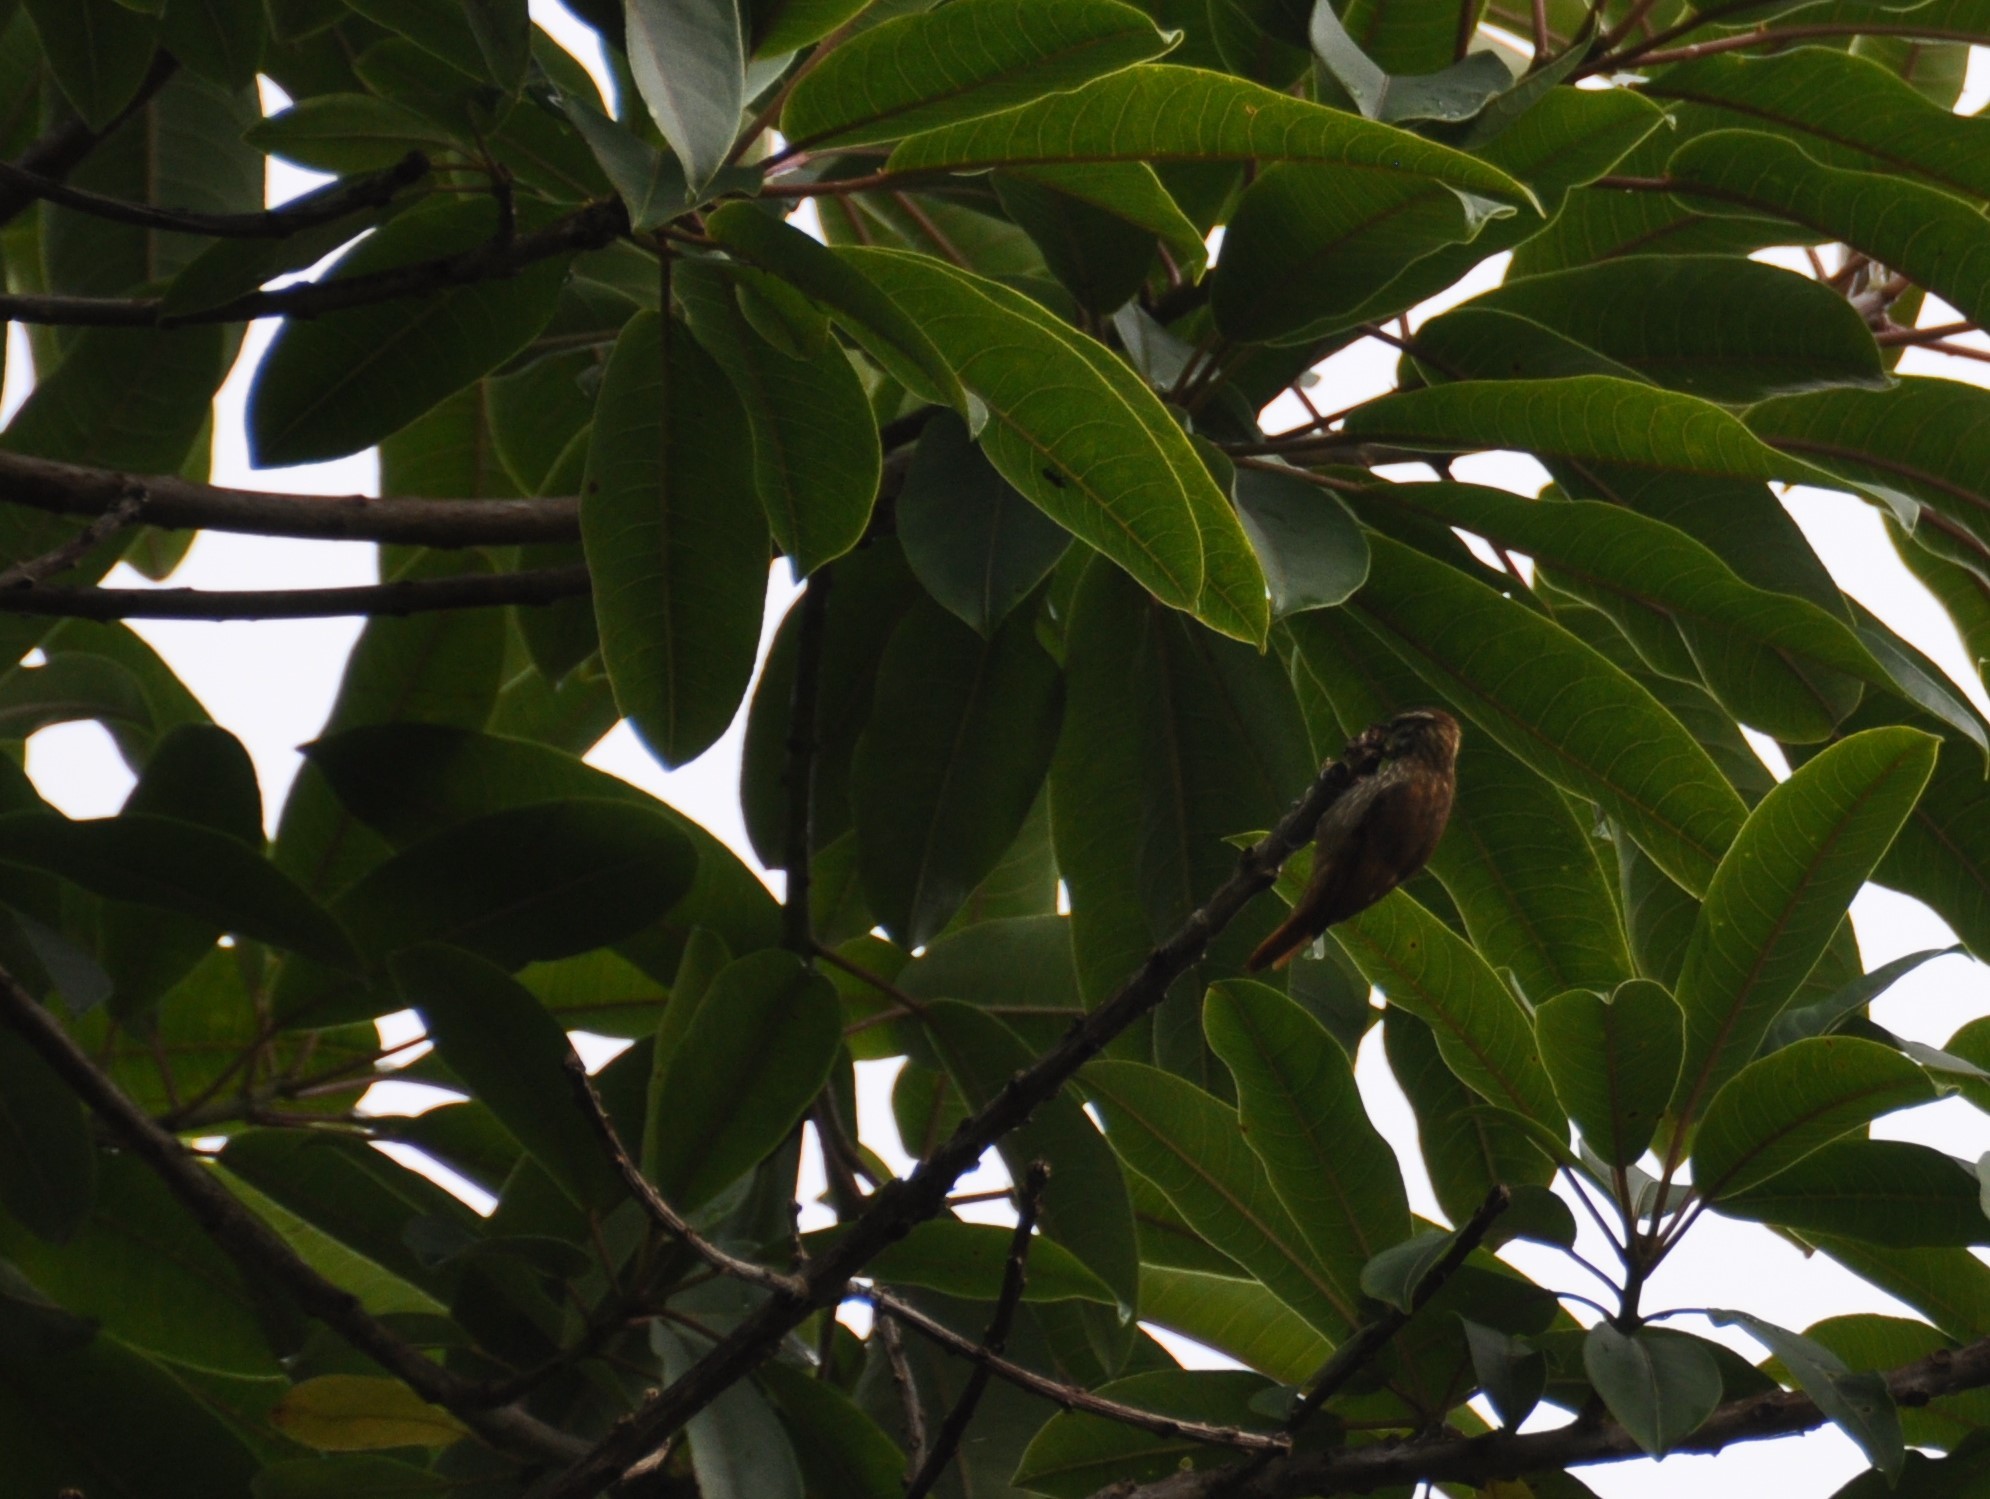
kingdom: Animalia
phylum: Chordata
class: Aves
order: Passeriformes
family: Furnariidae
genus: Xenops
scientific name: Xenops rutilans
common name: Streaked xenops
